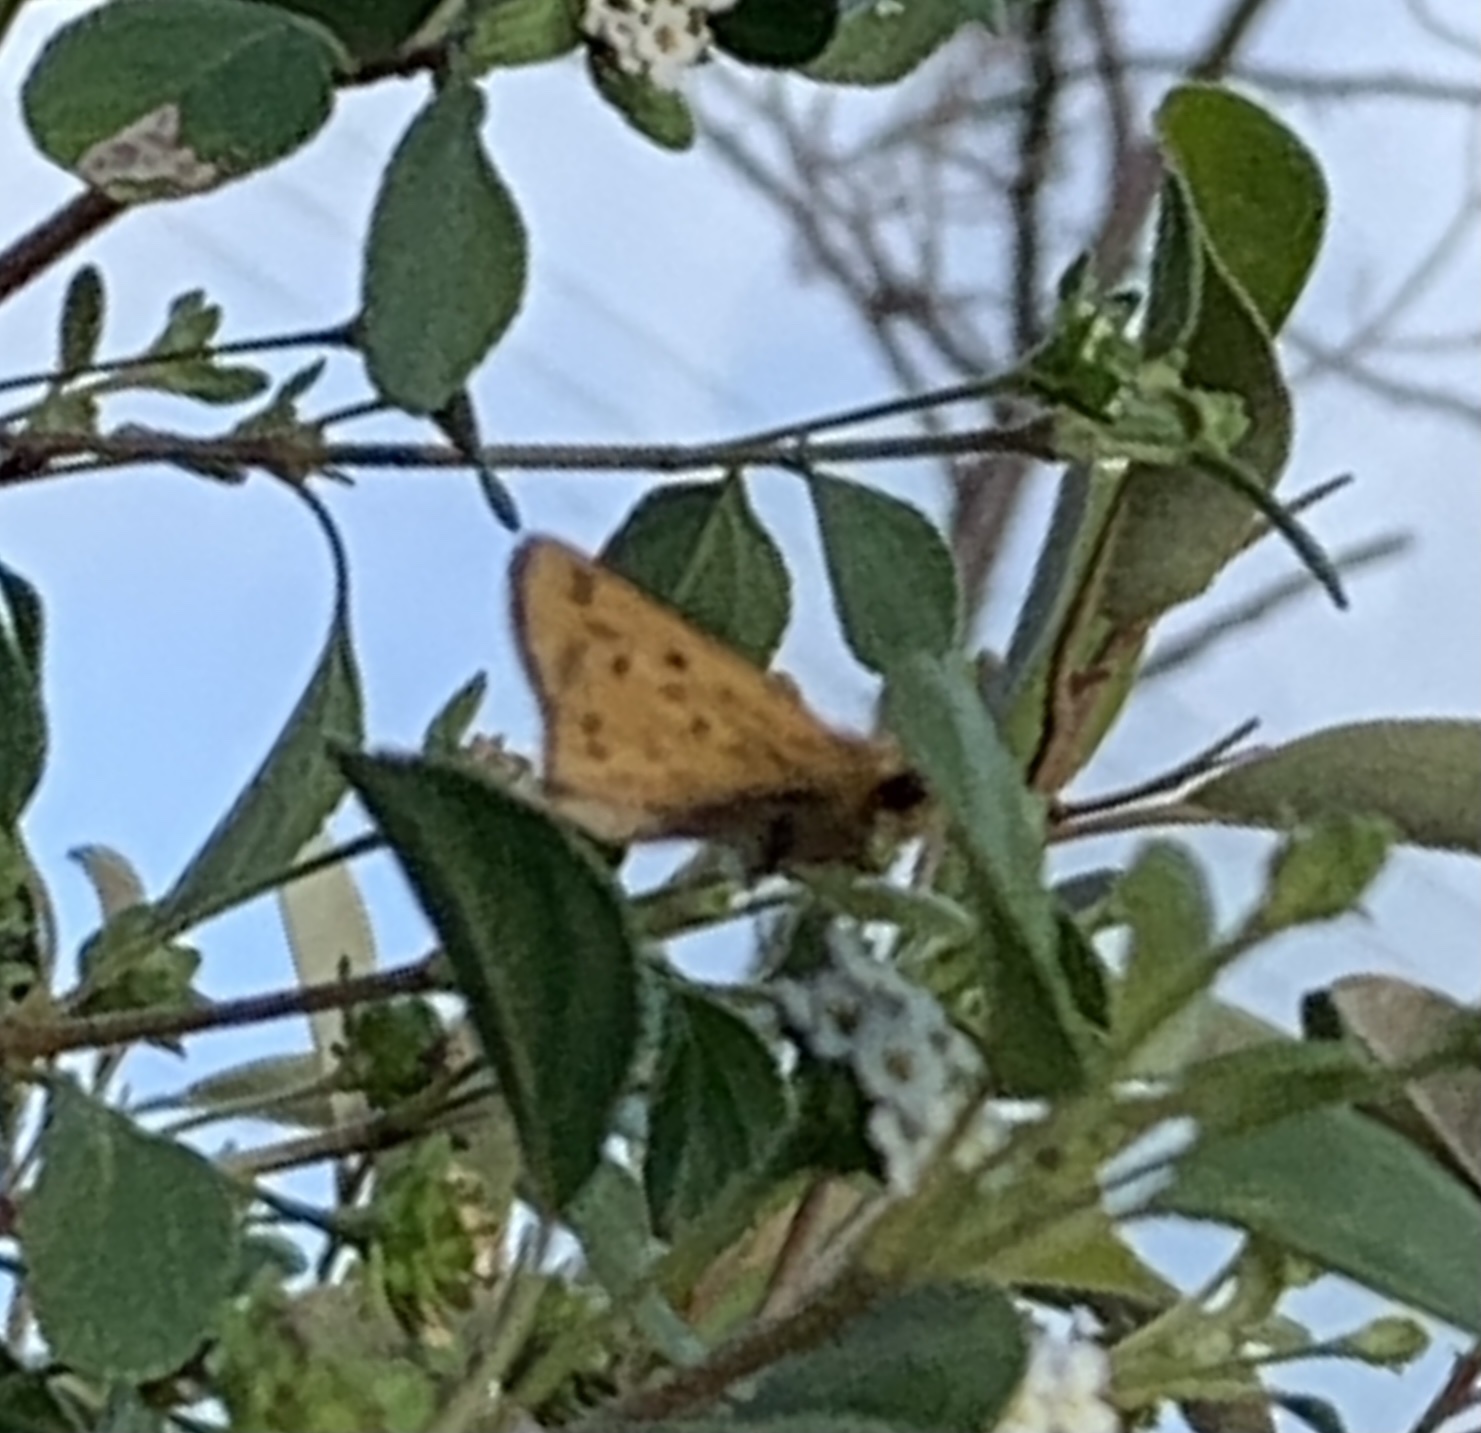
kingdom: Animalia
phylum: Arthropoda
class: Insecta
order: Lepidoptera
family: Hesperiidae
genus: Hylephila
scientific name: Hylephila phyleus
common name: Fiery skipper
